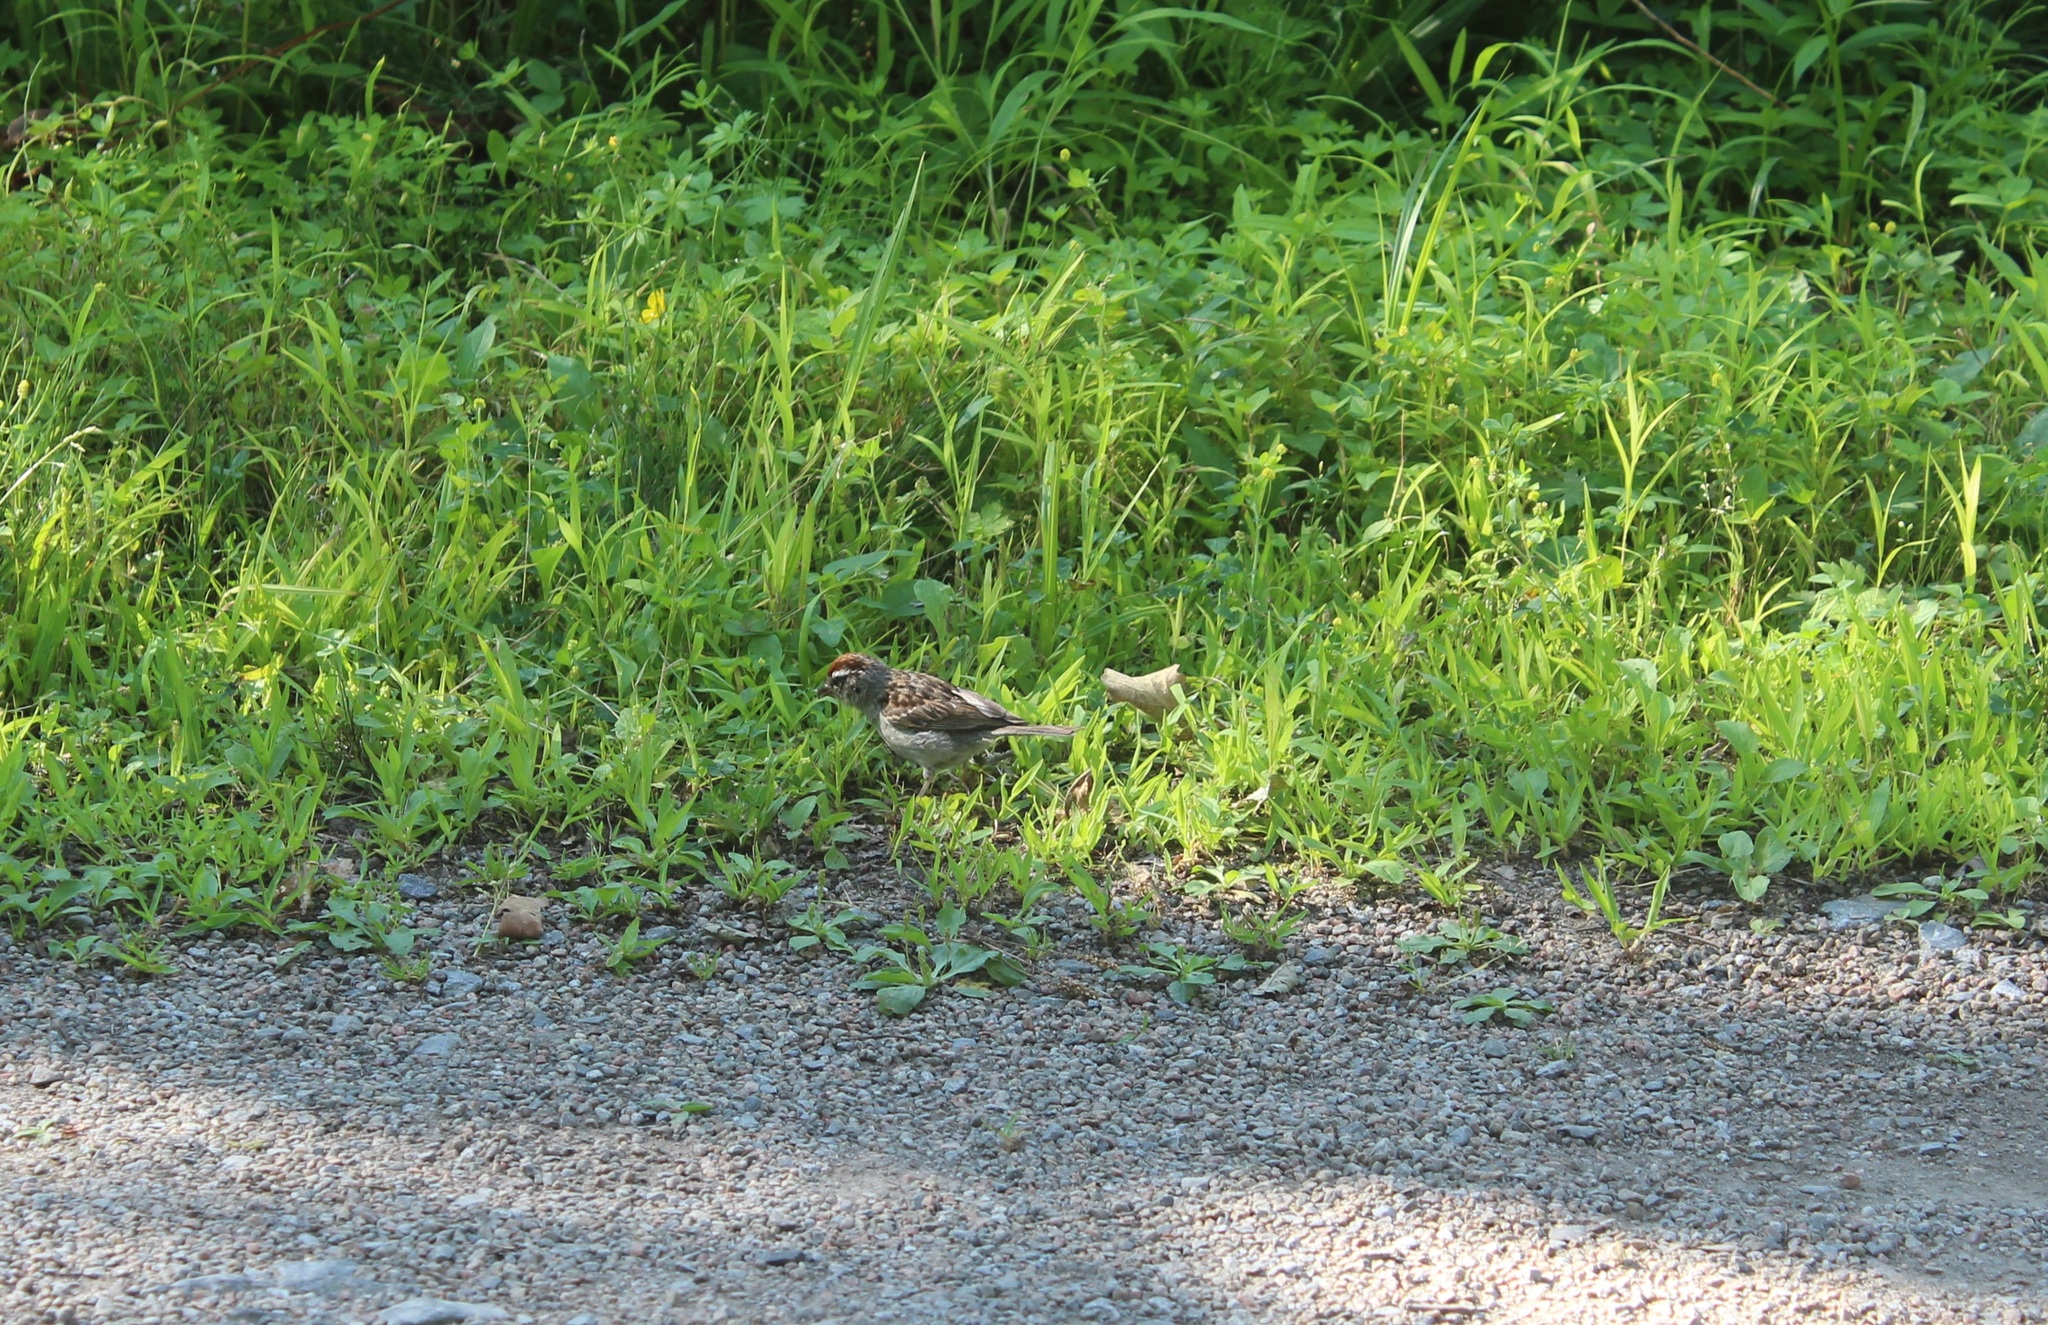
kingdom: Animalia
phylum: Chordata
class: Aves
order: Passeriformes
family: Passerellidae
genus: Spizella
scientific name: Spizella passerina
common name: Chipping sparrow
